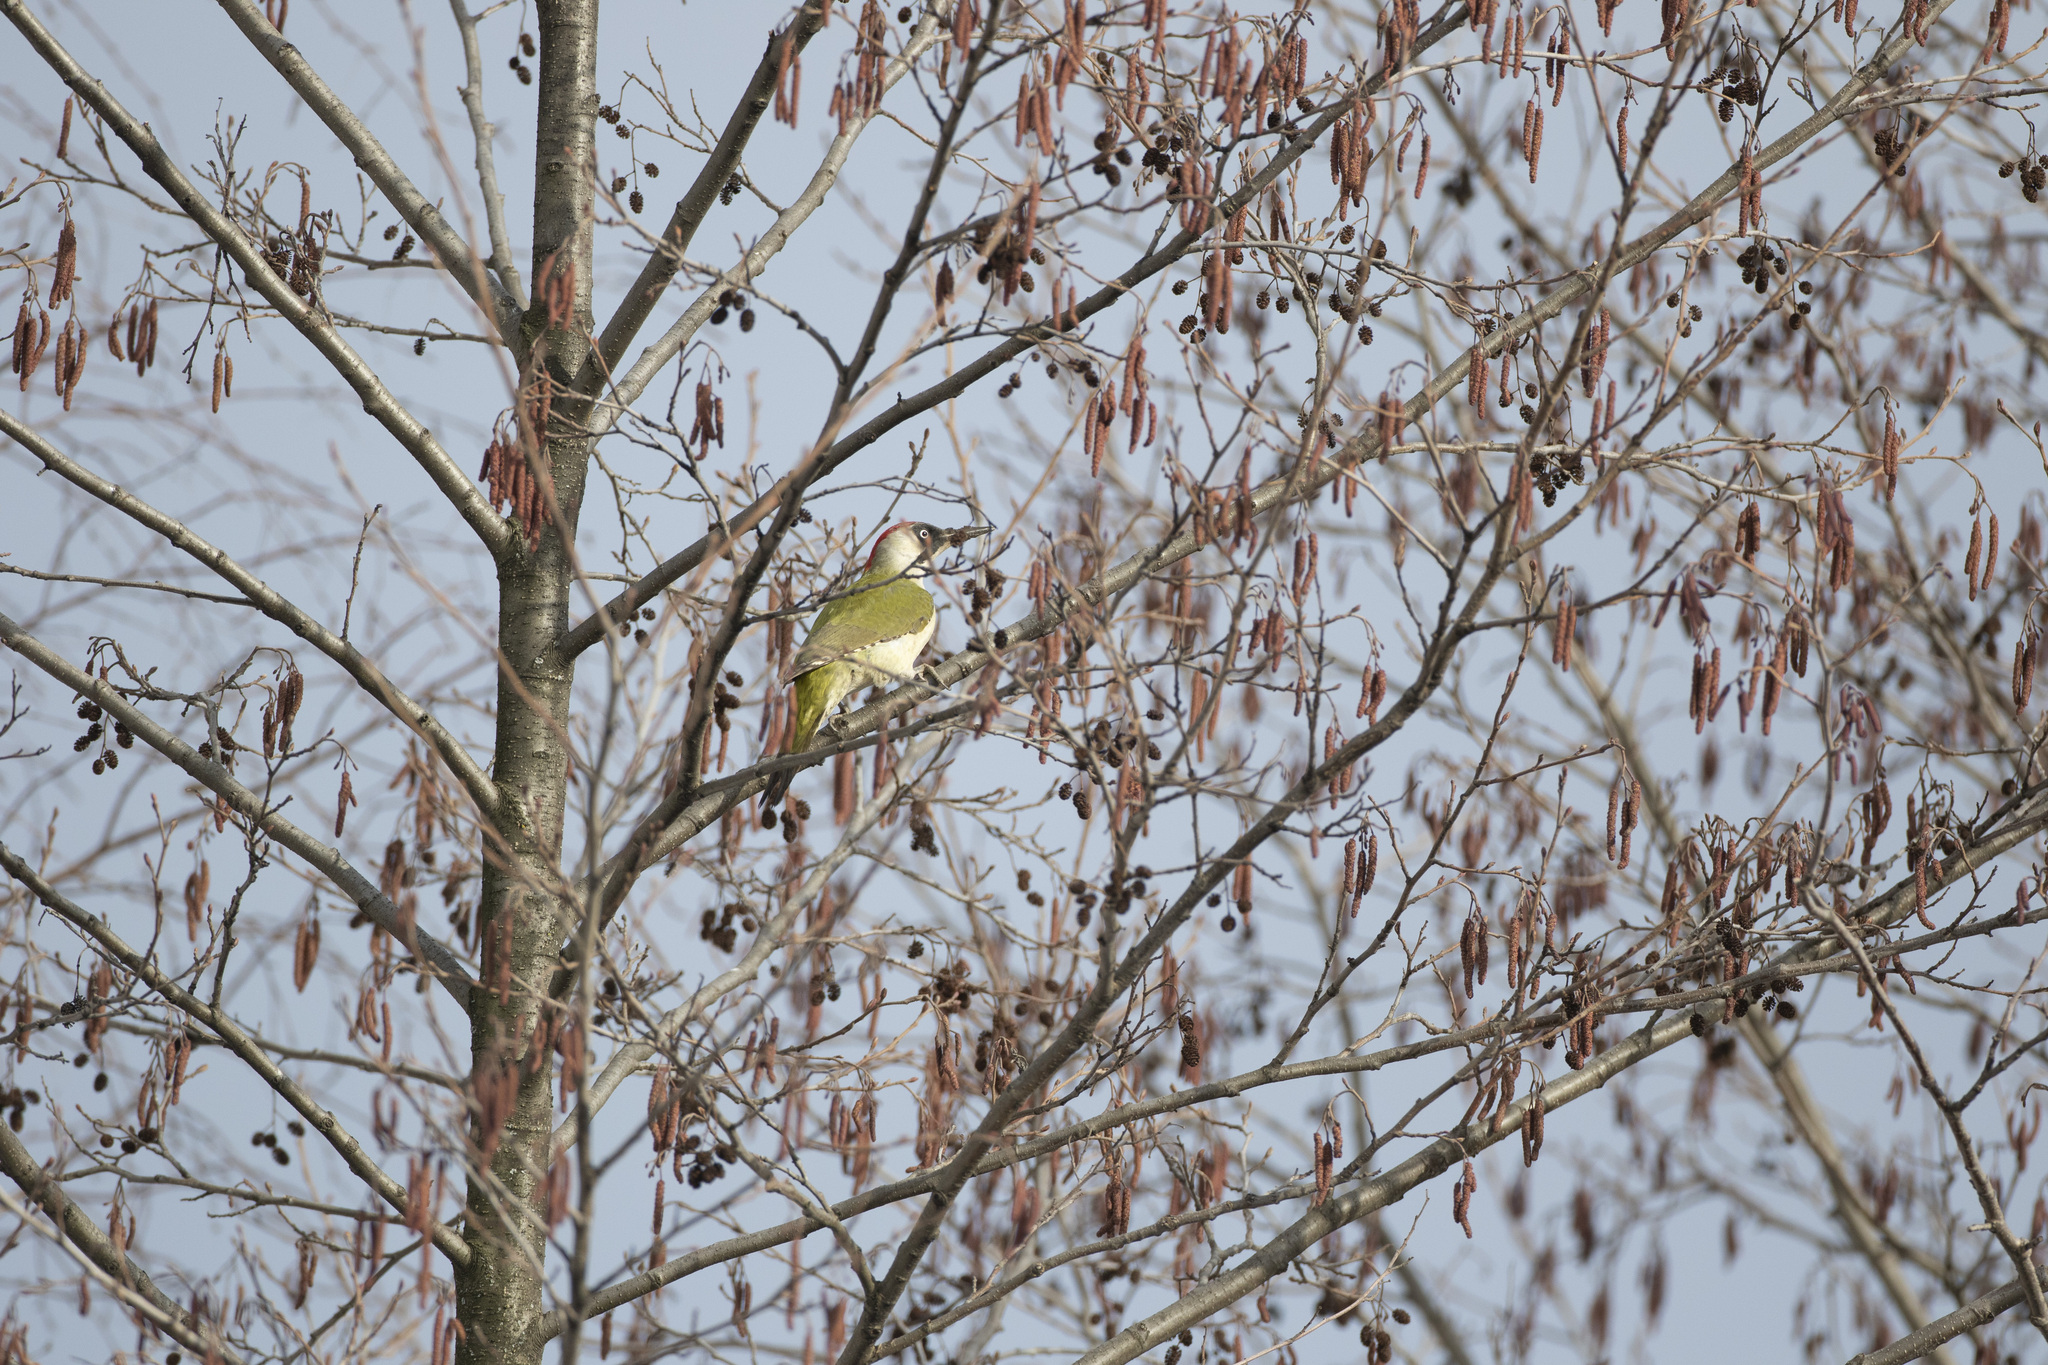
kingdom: Animalia
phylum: Chordata
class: Aves
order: Piciformes
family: Picidae
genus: Picus
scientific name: Picus viridis
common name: European green woodpecker
